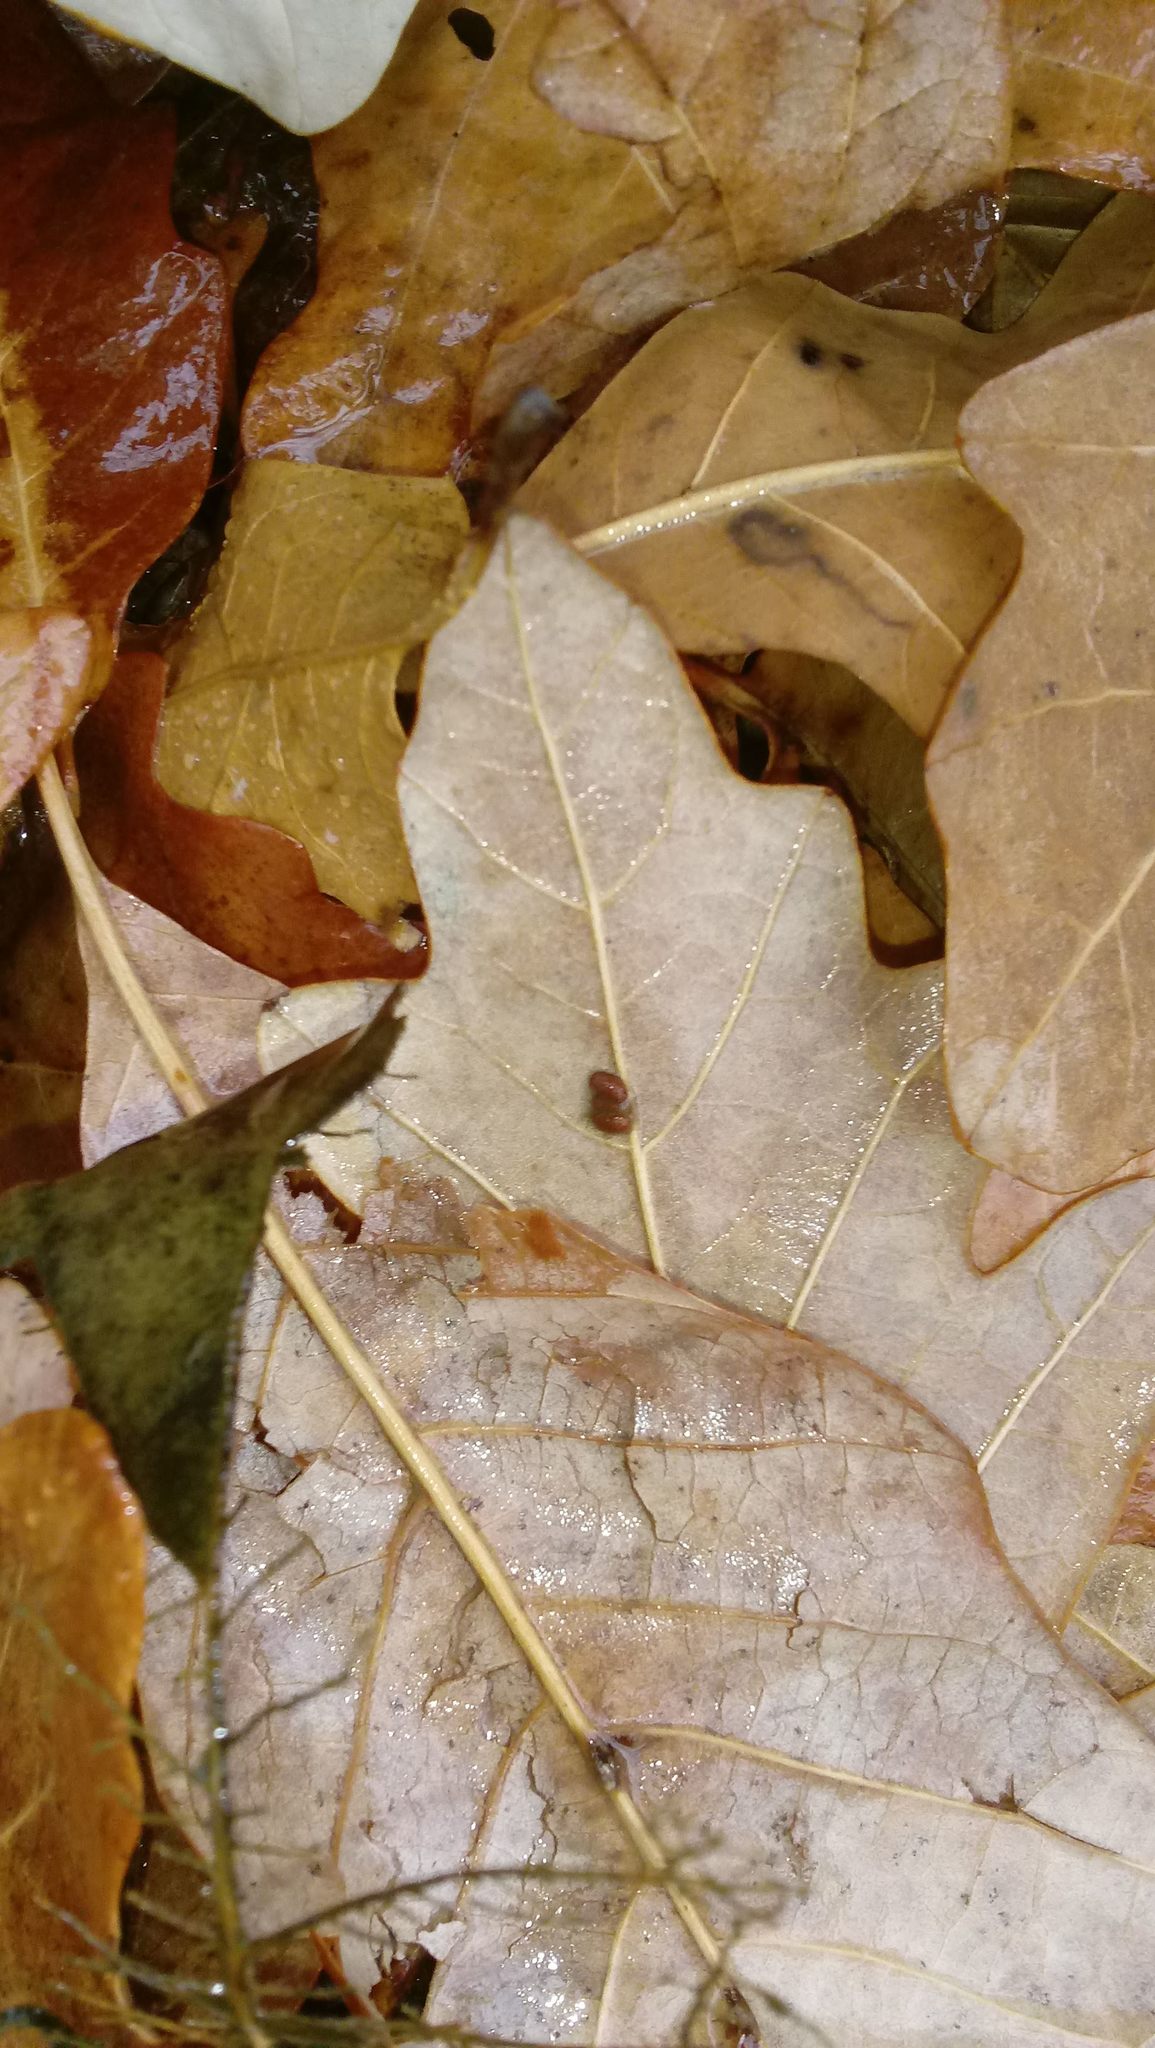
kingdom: Animalia
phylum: Arthropoda
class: Insecta
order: Hymenoptera
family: Cynipidae
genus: Andricus
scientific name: Andricus Druon ignotum
